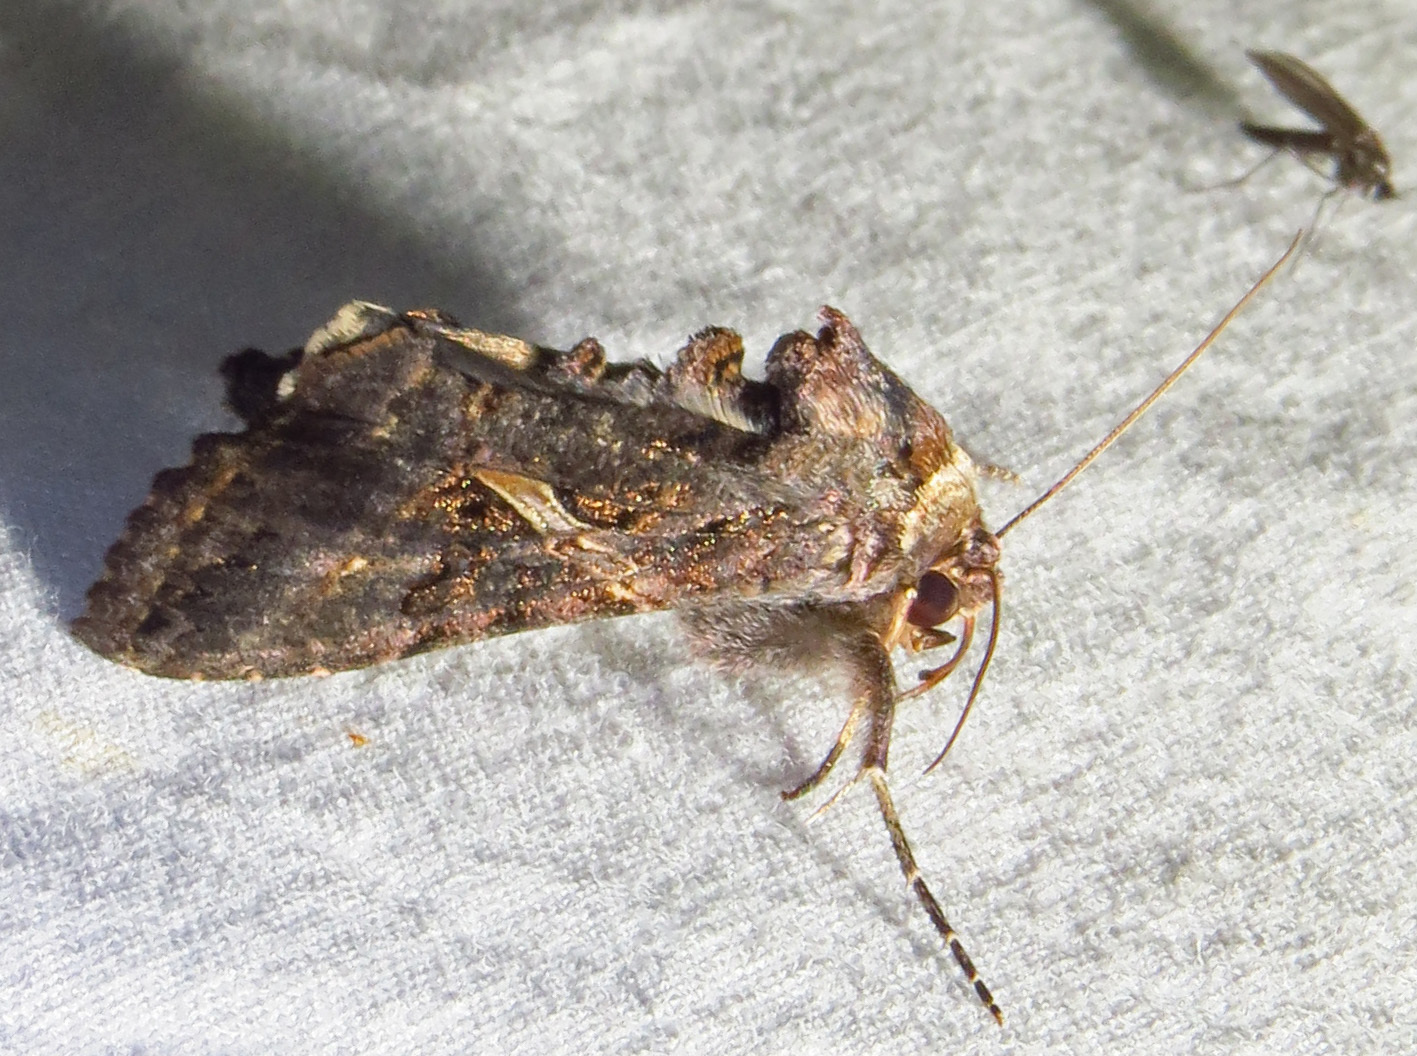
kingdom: Animalia
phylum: Arthropoda
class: Insecta
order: Lepidoptera
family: Noctuidae
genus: Ctenoplusia
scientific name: Ctenoplusia oxygramma
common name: Sharp-stigma looper moth
